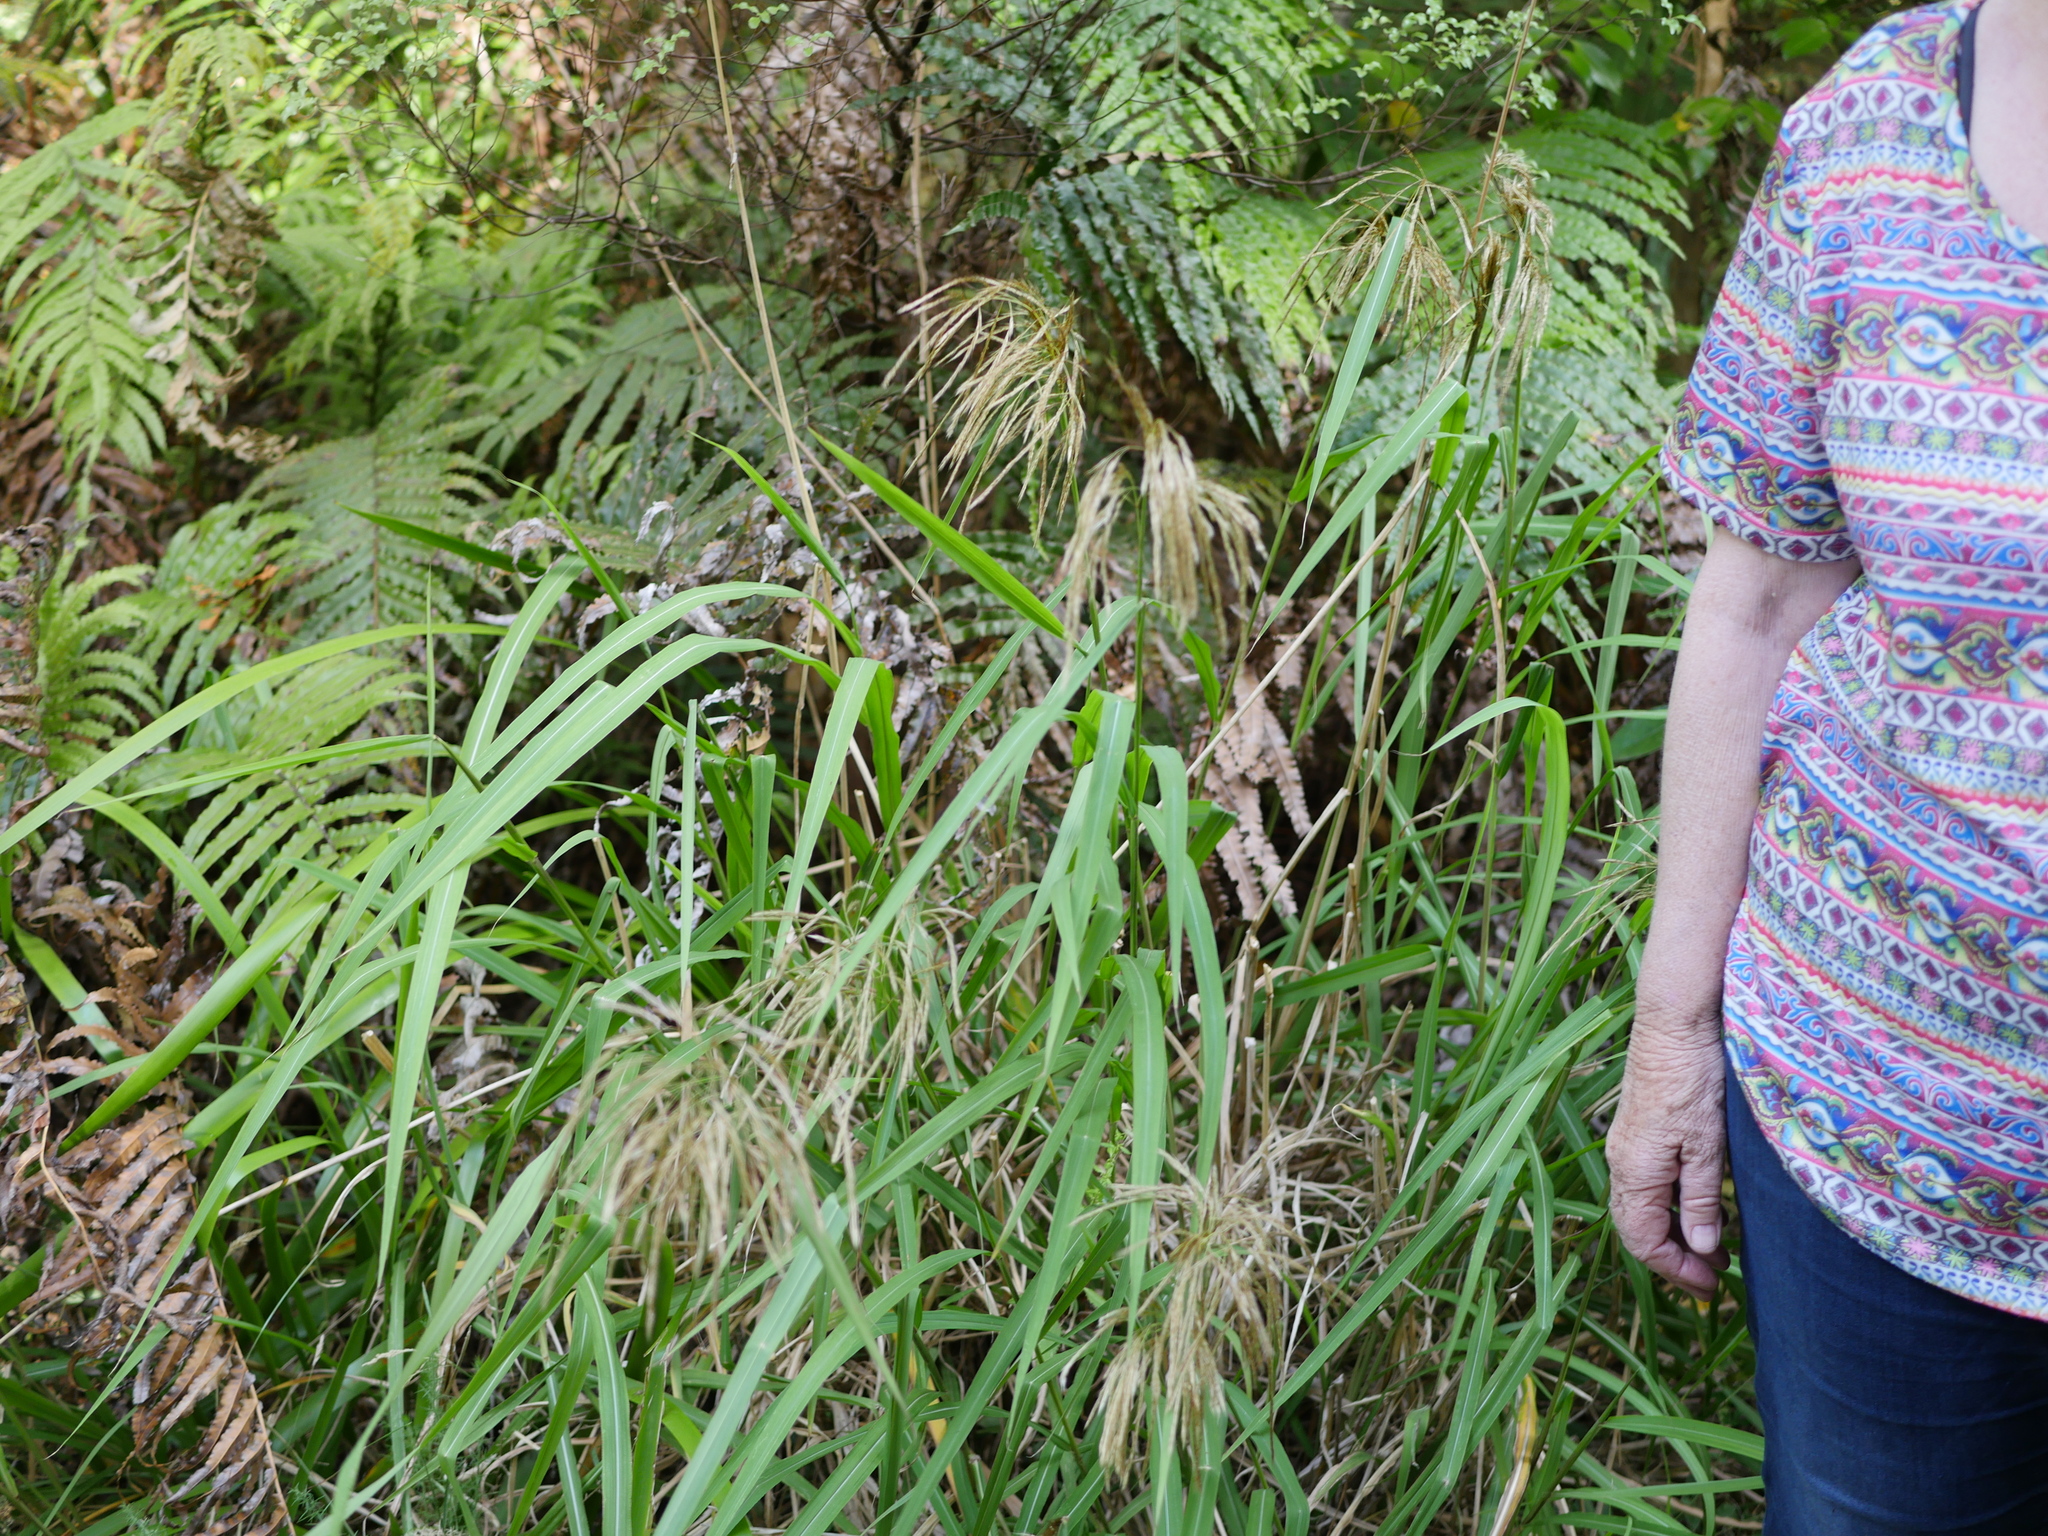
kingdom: Plantae
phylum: Tracheophyta
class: Liliopsida
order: Poales
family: Poaceae
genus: Miscanthus
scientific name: Miscanthus nepalensis
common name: Nepal silver grass
